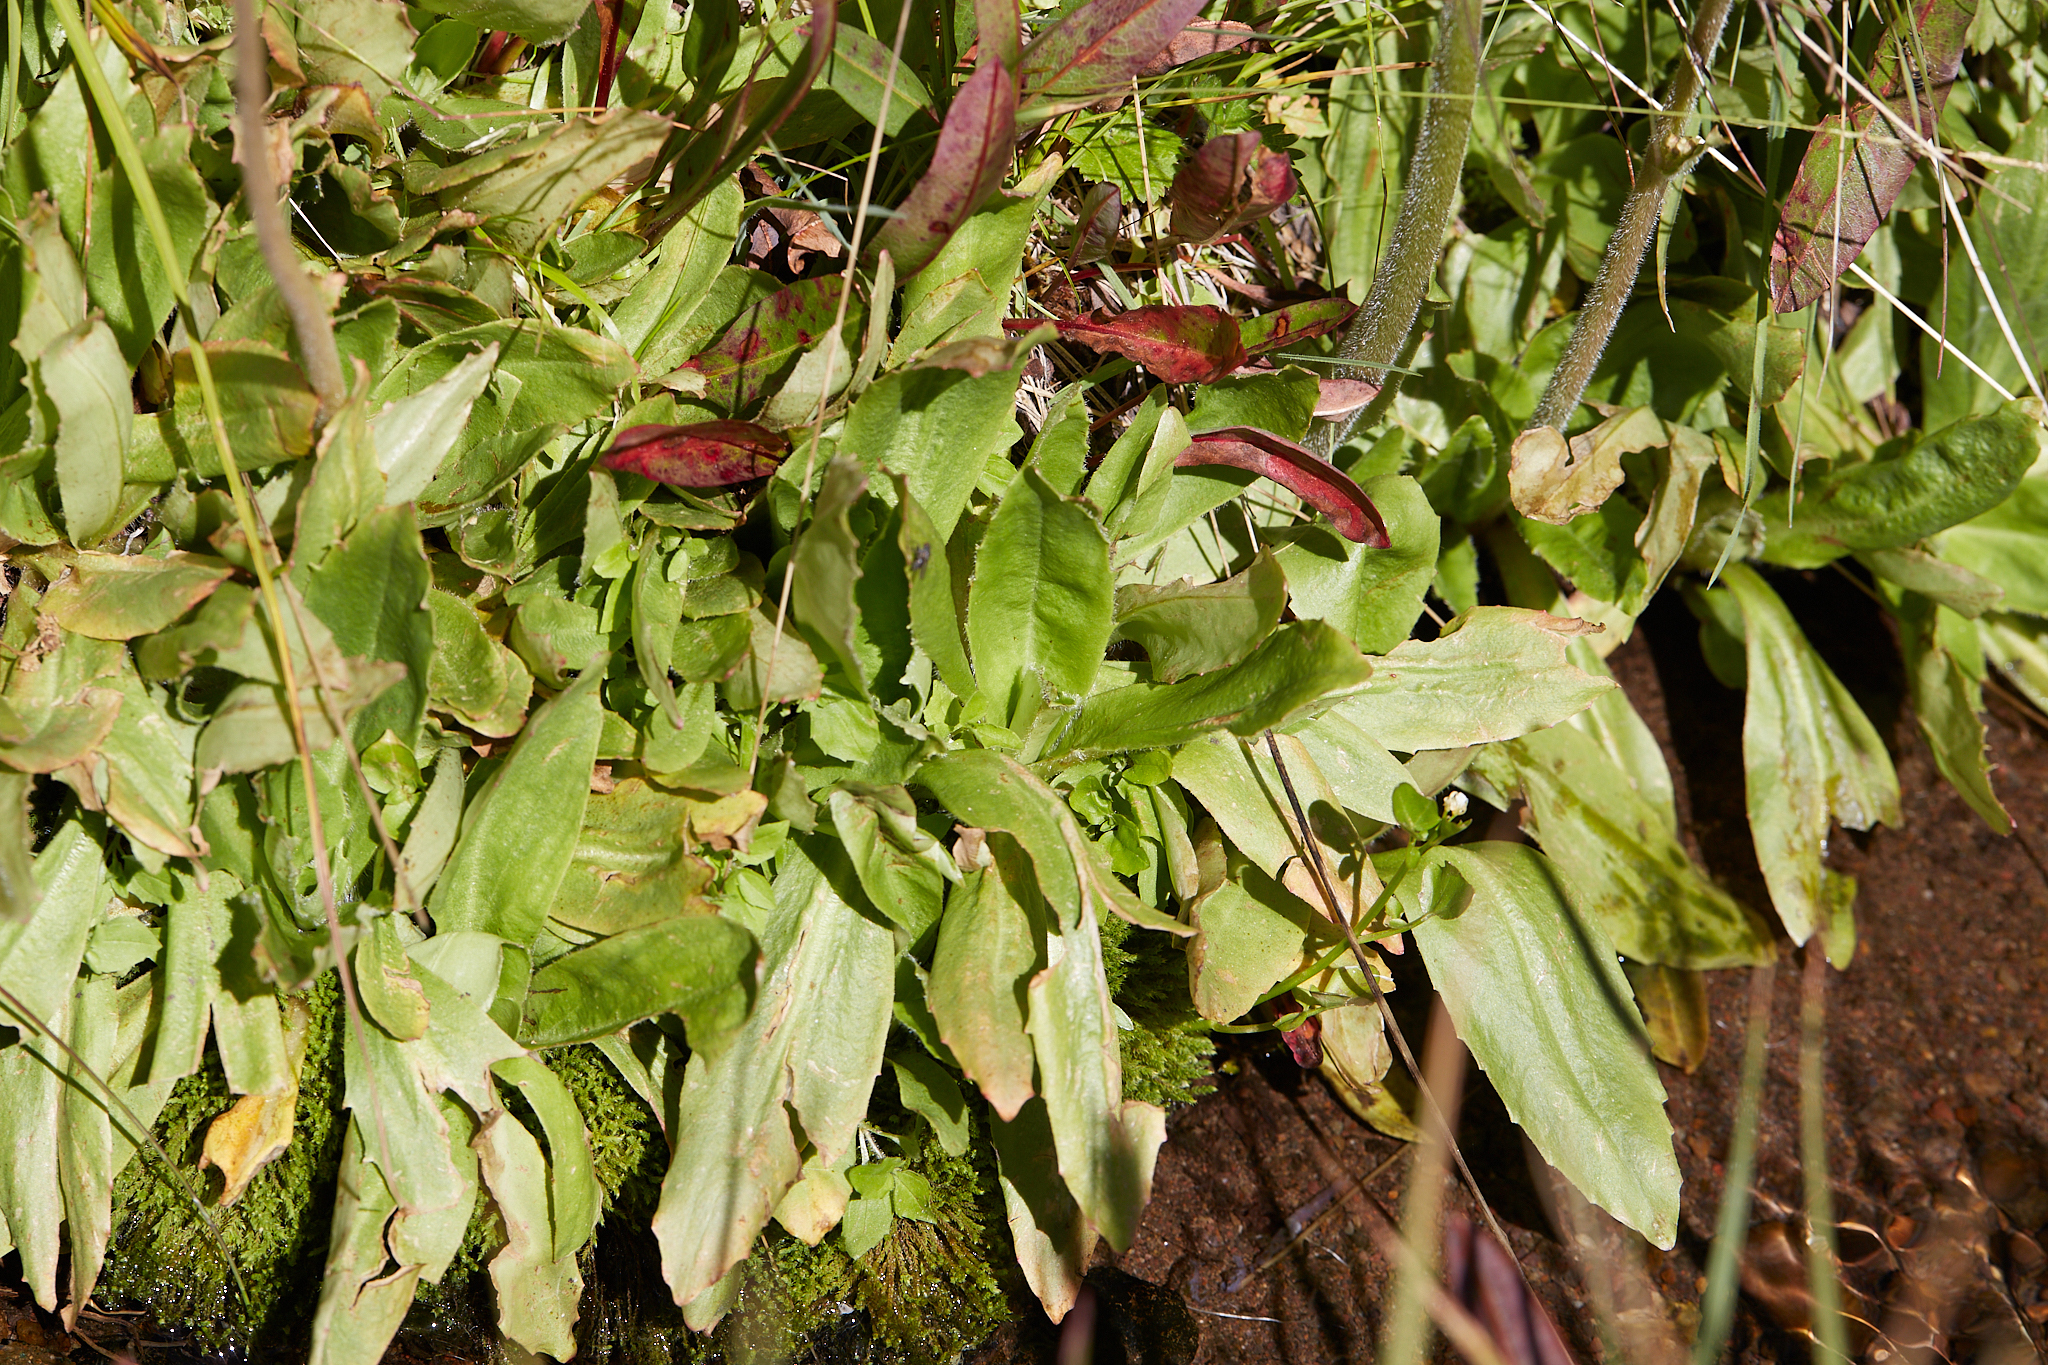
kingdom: Plantae
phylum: Tracheophyta
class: Magnoliopsida
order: Saxifragales
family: Saxifragaceae
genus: Micranthes
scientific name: Micranthes oregana
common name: Bog saxifrage
